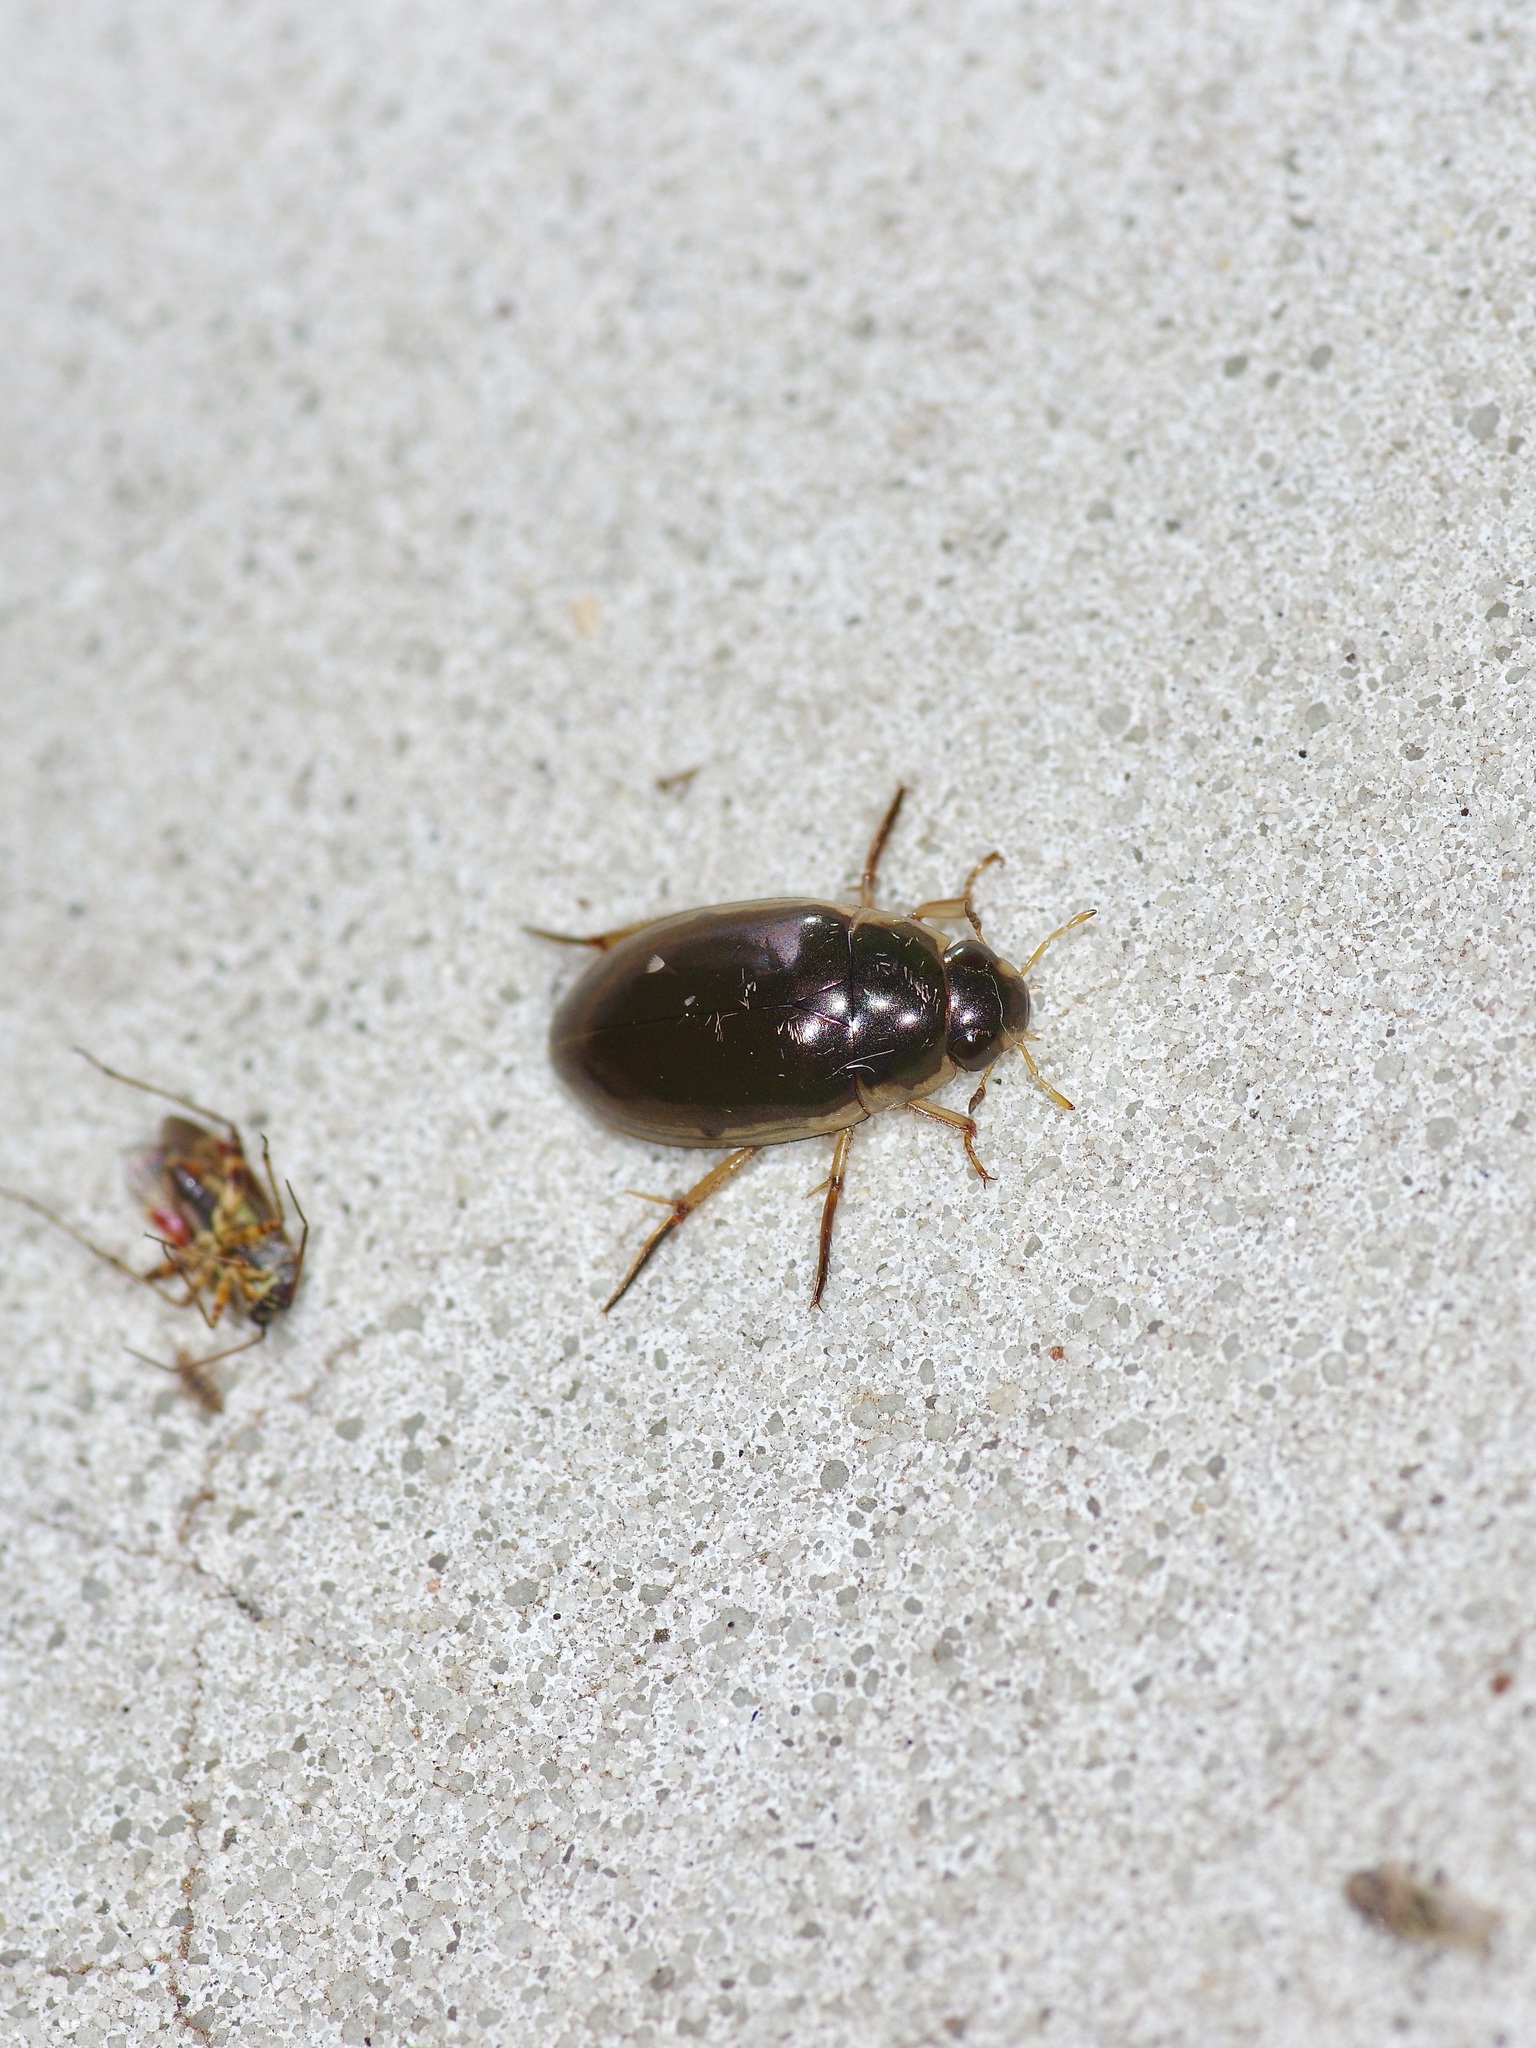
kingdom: Animalia
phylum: Arthropoda
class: Insecta
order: Coleoptera
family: Hydrophilidae
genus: Tropisternus
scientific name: Tropisternus lateralis
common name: Lateral-banded water scavenger beetle
